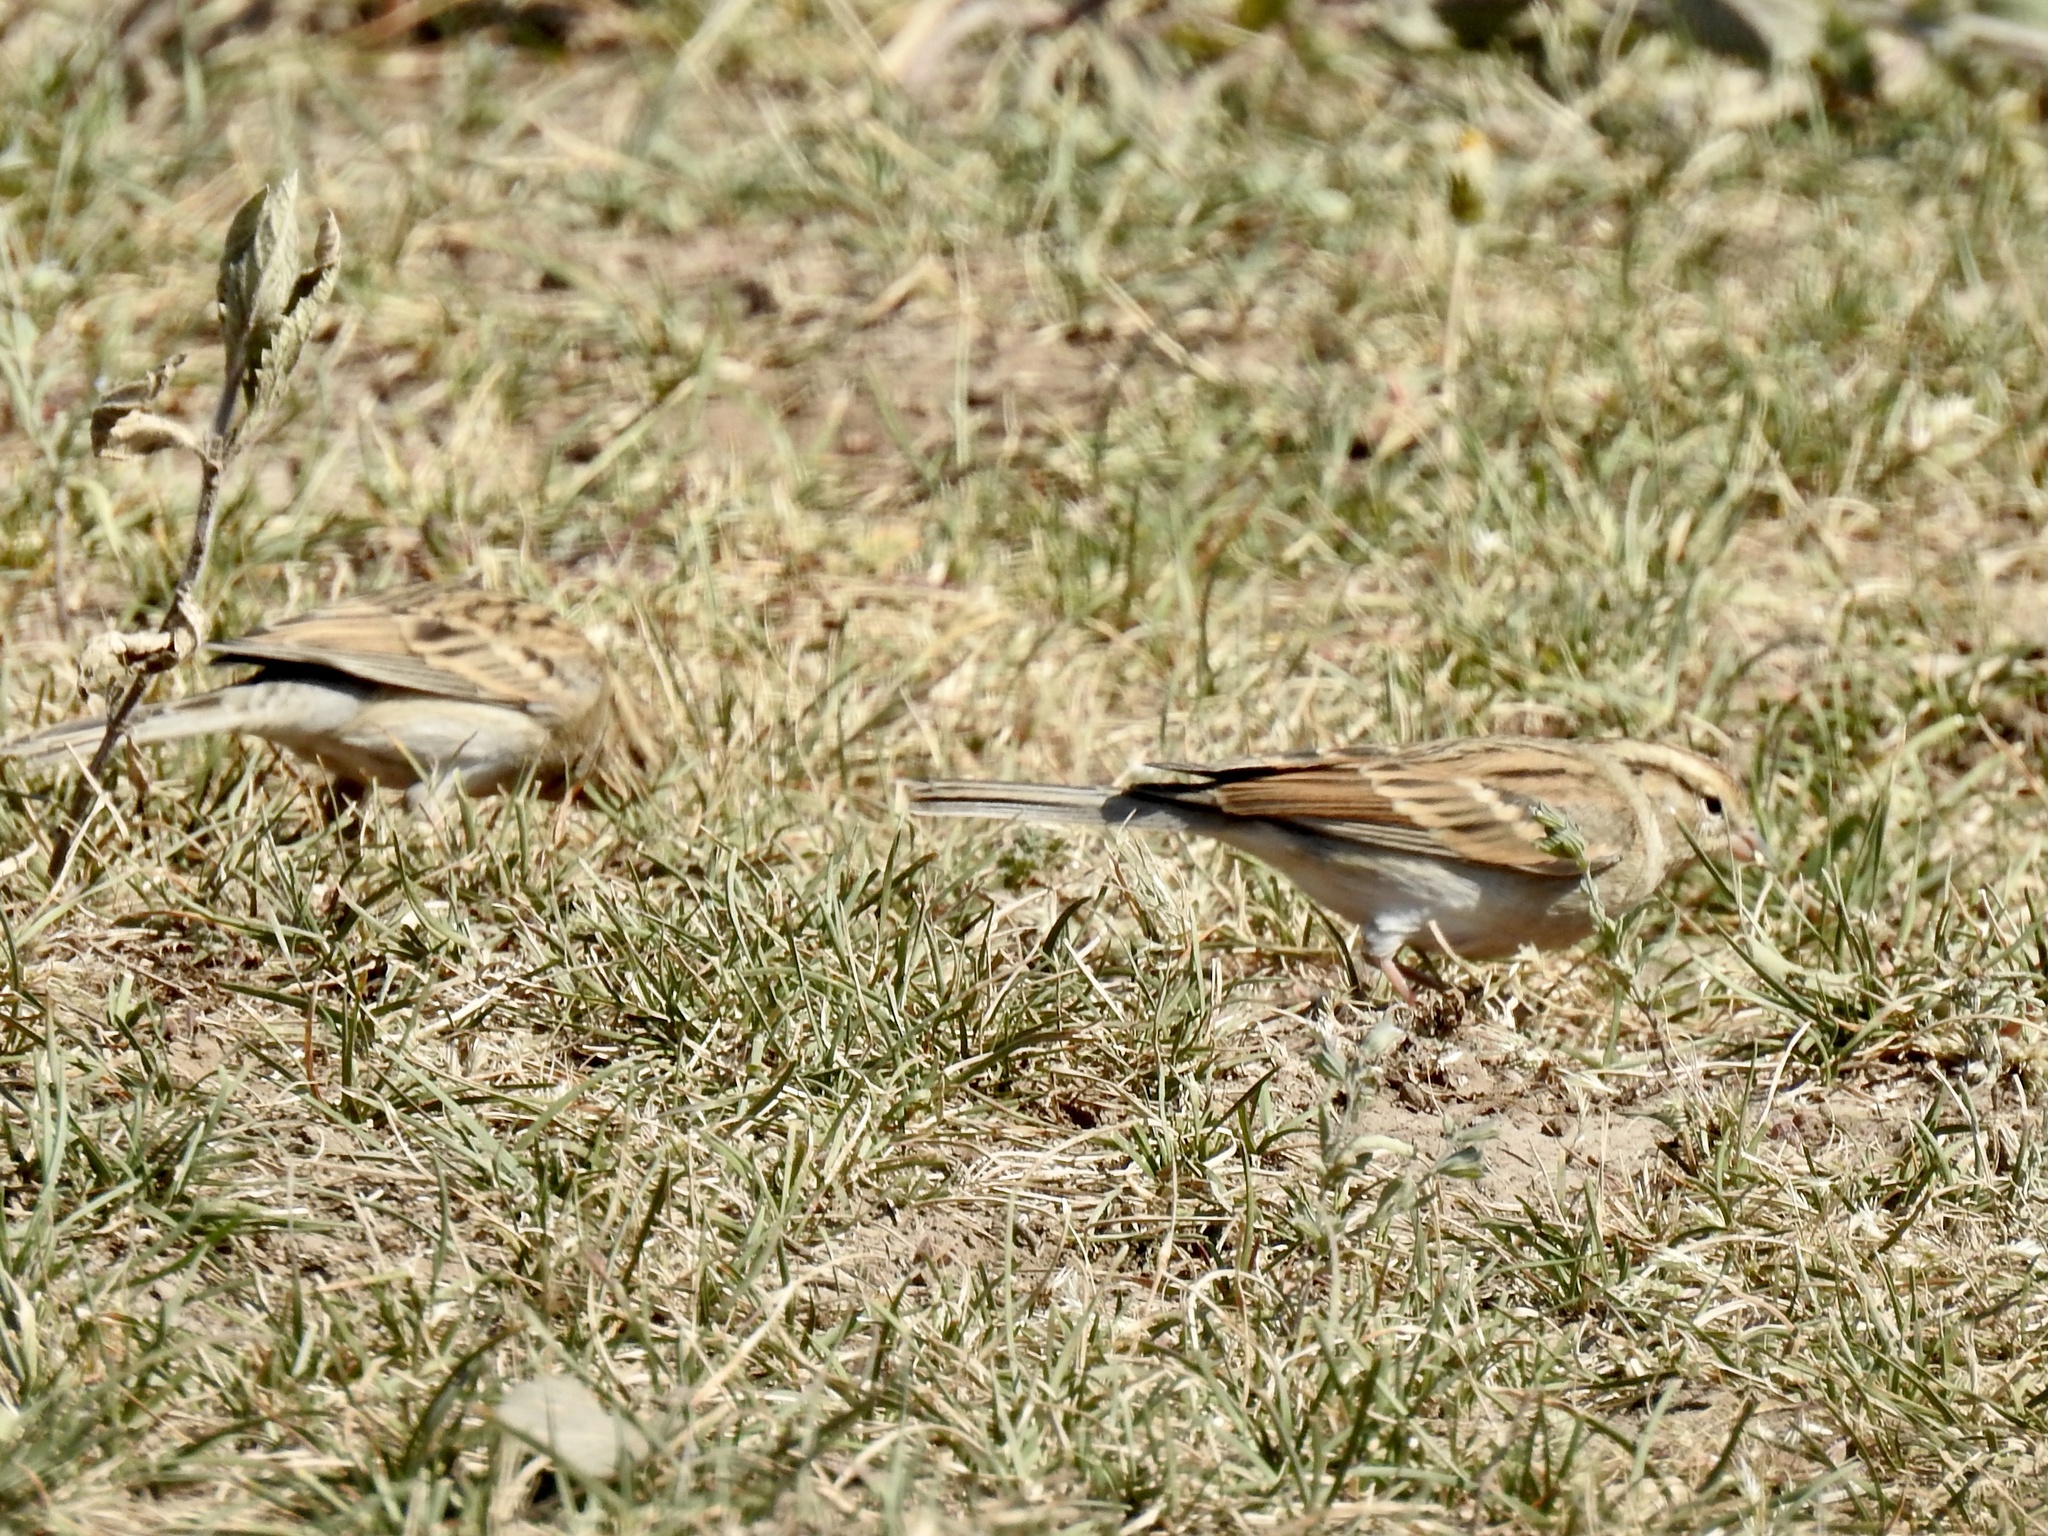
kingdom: Animalia
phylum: Chordata
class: Aves
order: Passeriformes
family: Passerellidae
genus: Spizella
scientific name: Spizella passerina
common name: Chipping sparrow
